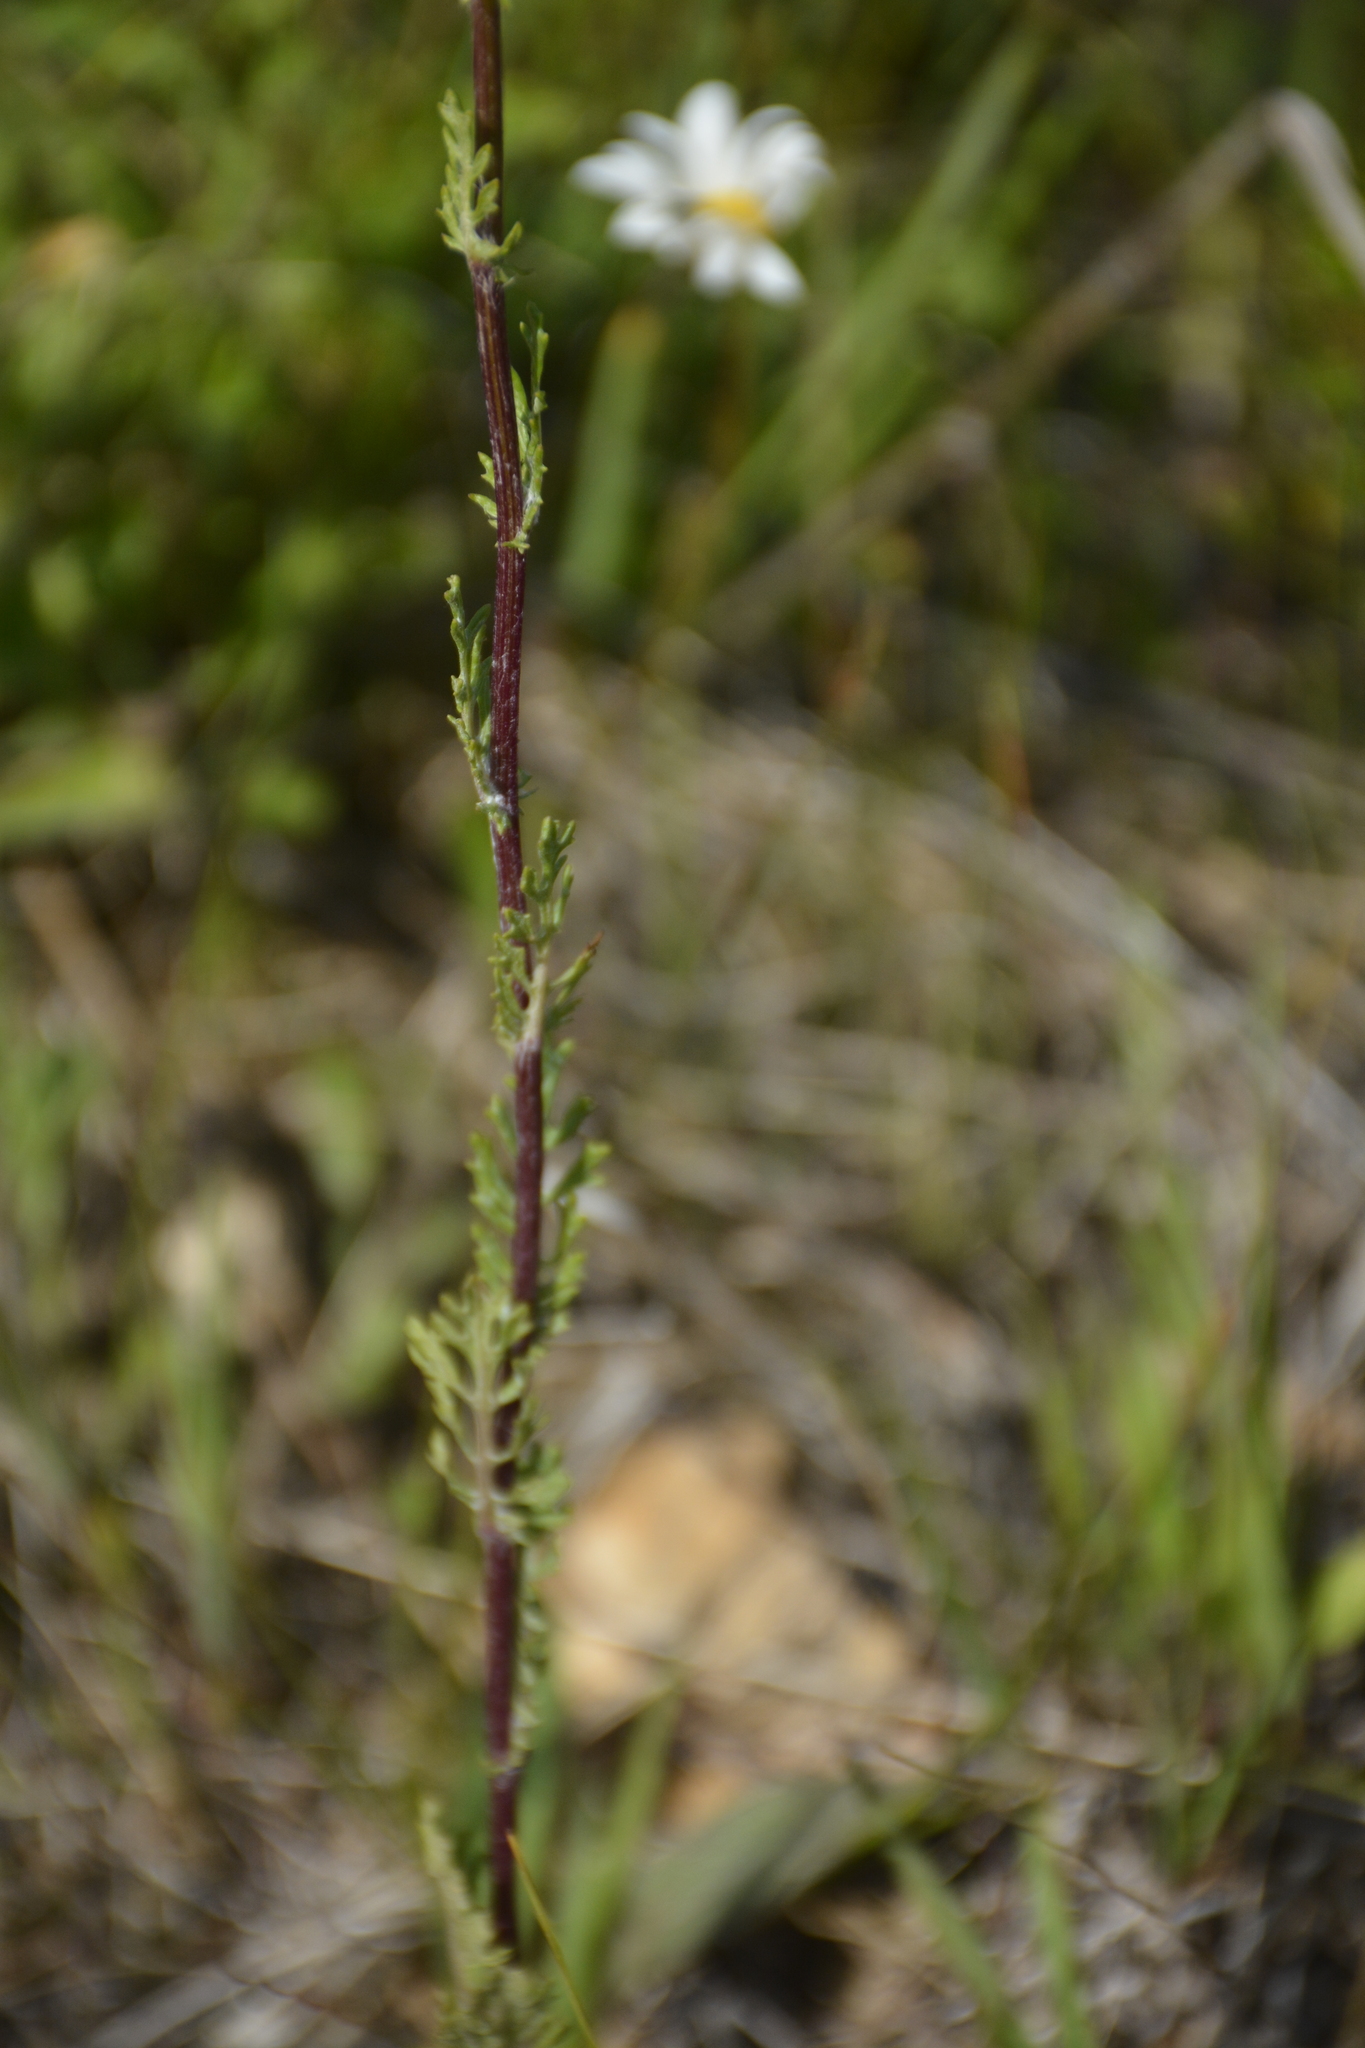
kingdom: Plantae
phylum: Tracheophyta
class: Magnoliopsida
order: Asterales
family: Asteraceae
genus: Jacobaea
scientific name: Jacobaea vulgaris
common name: Stinking willie
